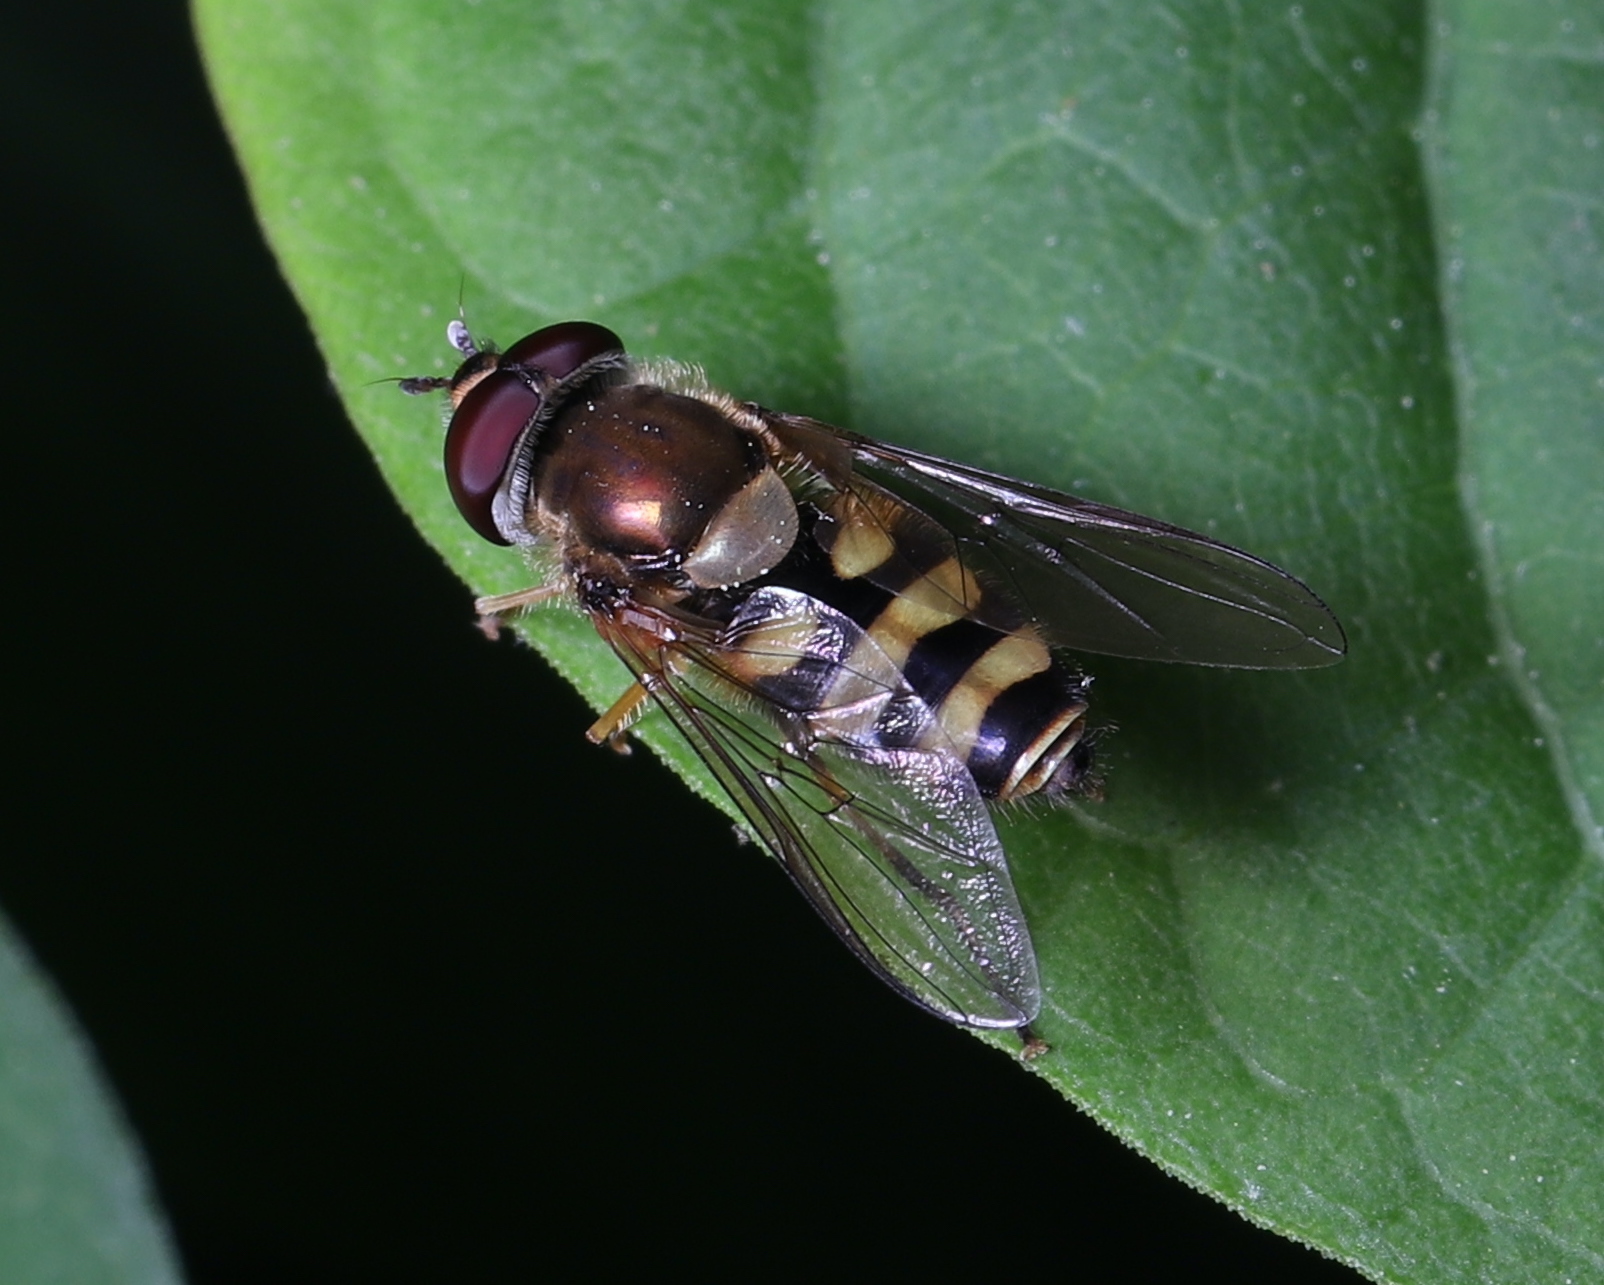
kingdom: Animalia
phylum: Arthropoda
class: Insecta
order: Diptera
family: Syrphidae
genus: Syrphus
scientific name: Syrphus ribesii
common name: Common flower fly
